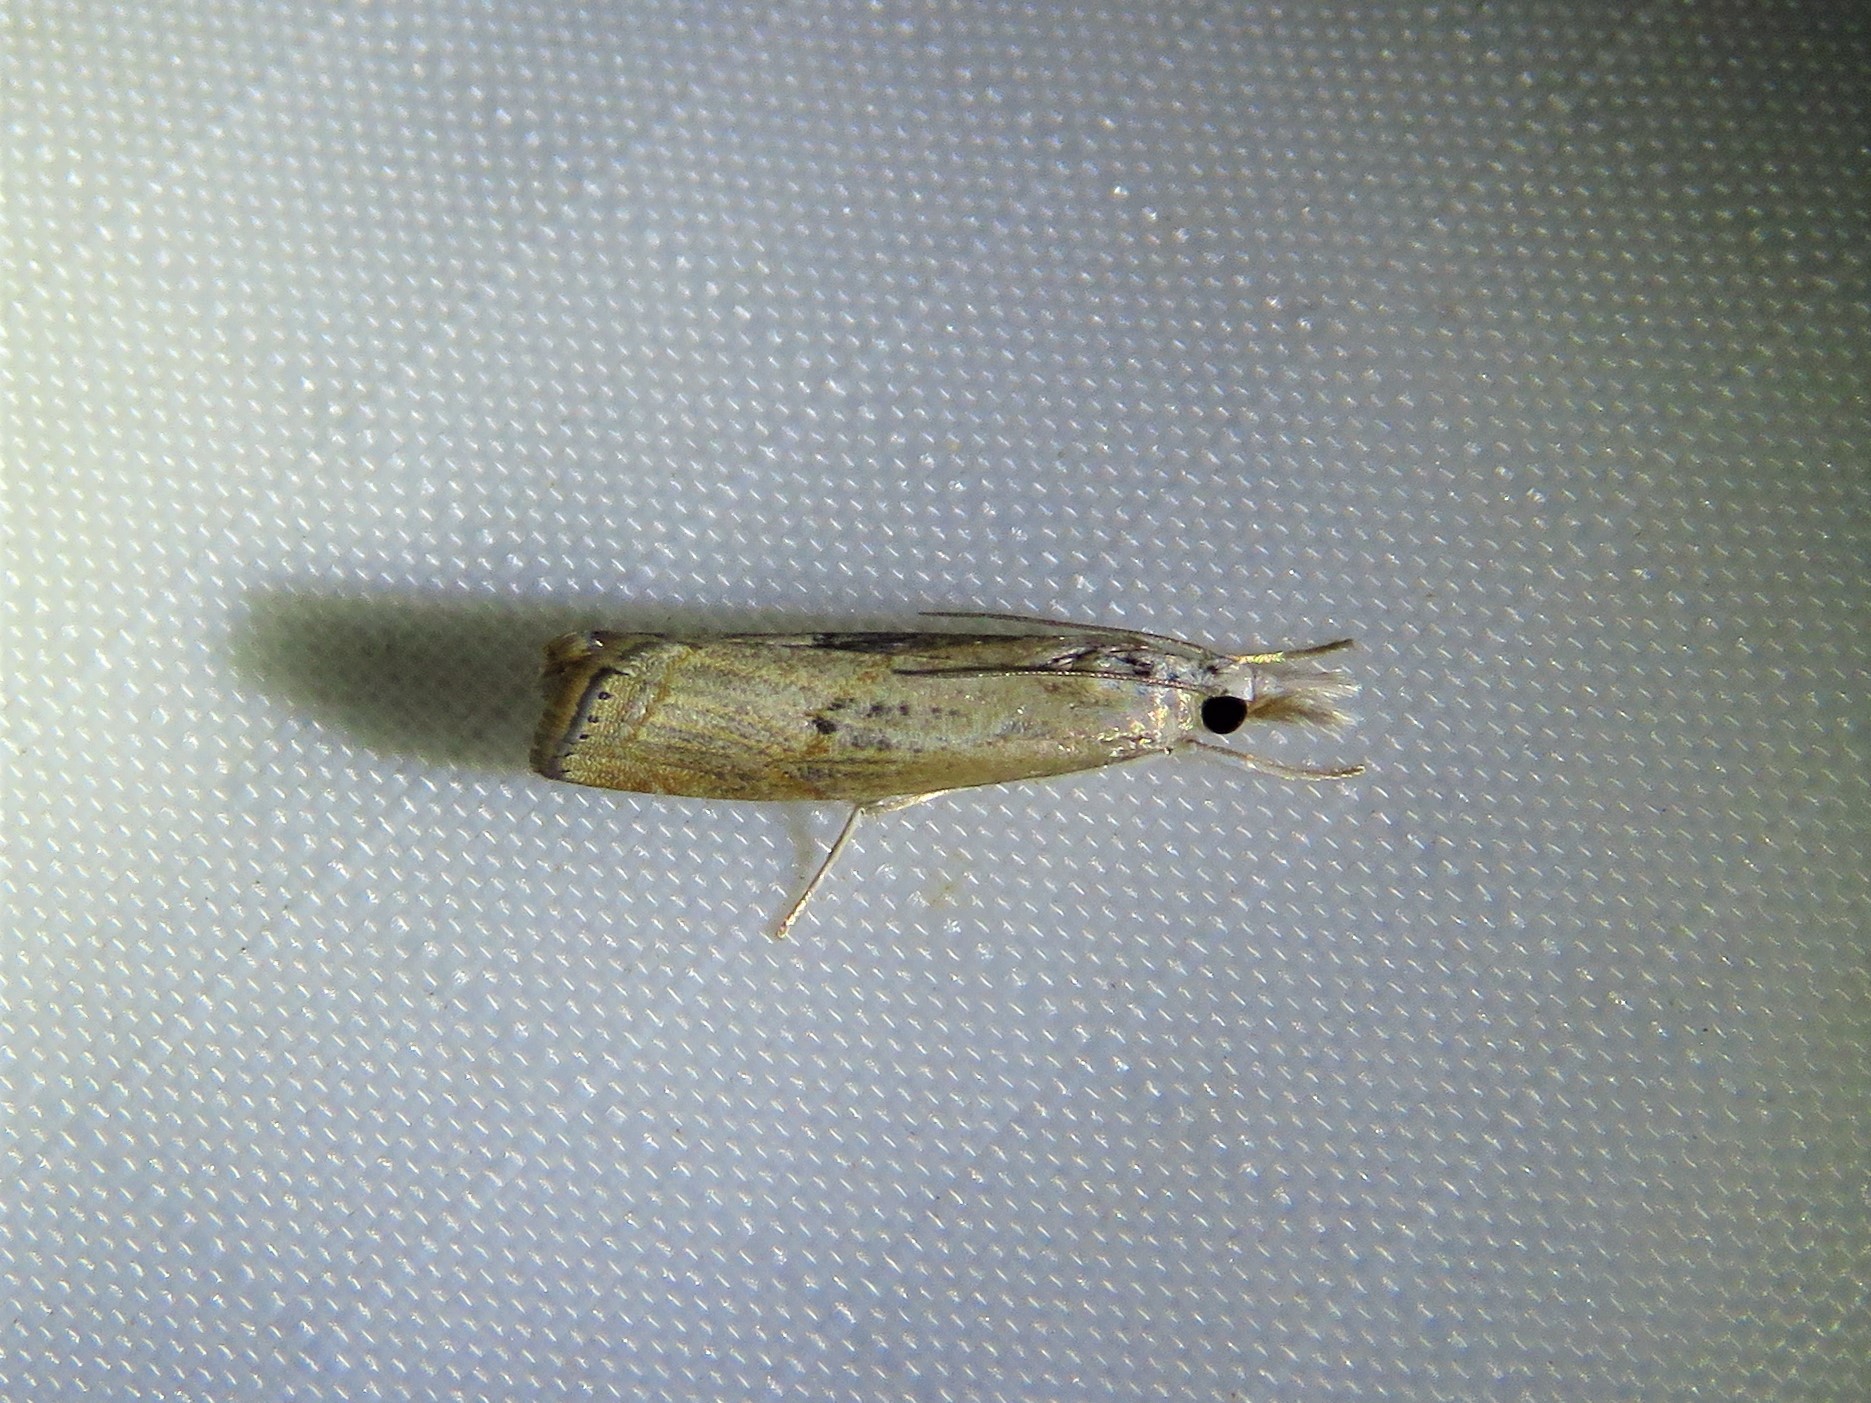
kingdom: Animalia
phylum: Arthropoda
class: Insecta
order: Lepidoptera
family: Crambidae
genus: Parapediasia
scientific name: Parapediasia teterellus
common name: Bluegrass webworm moth
